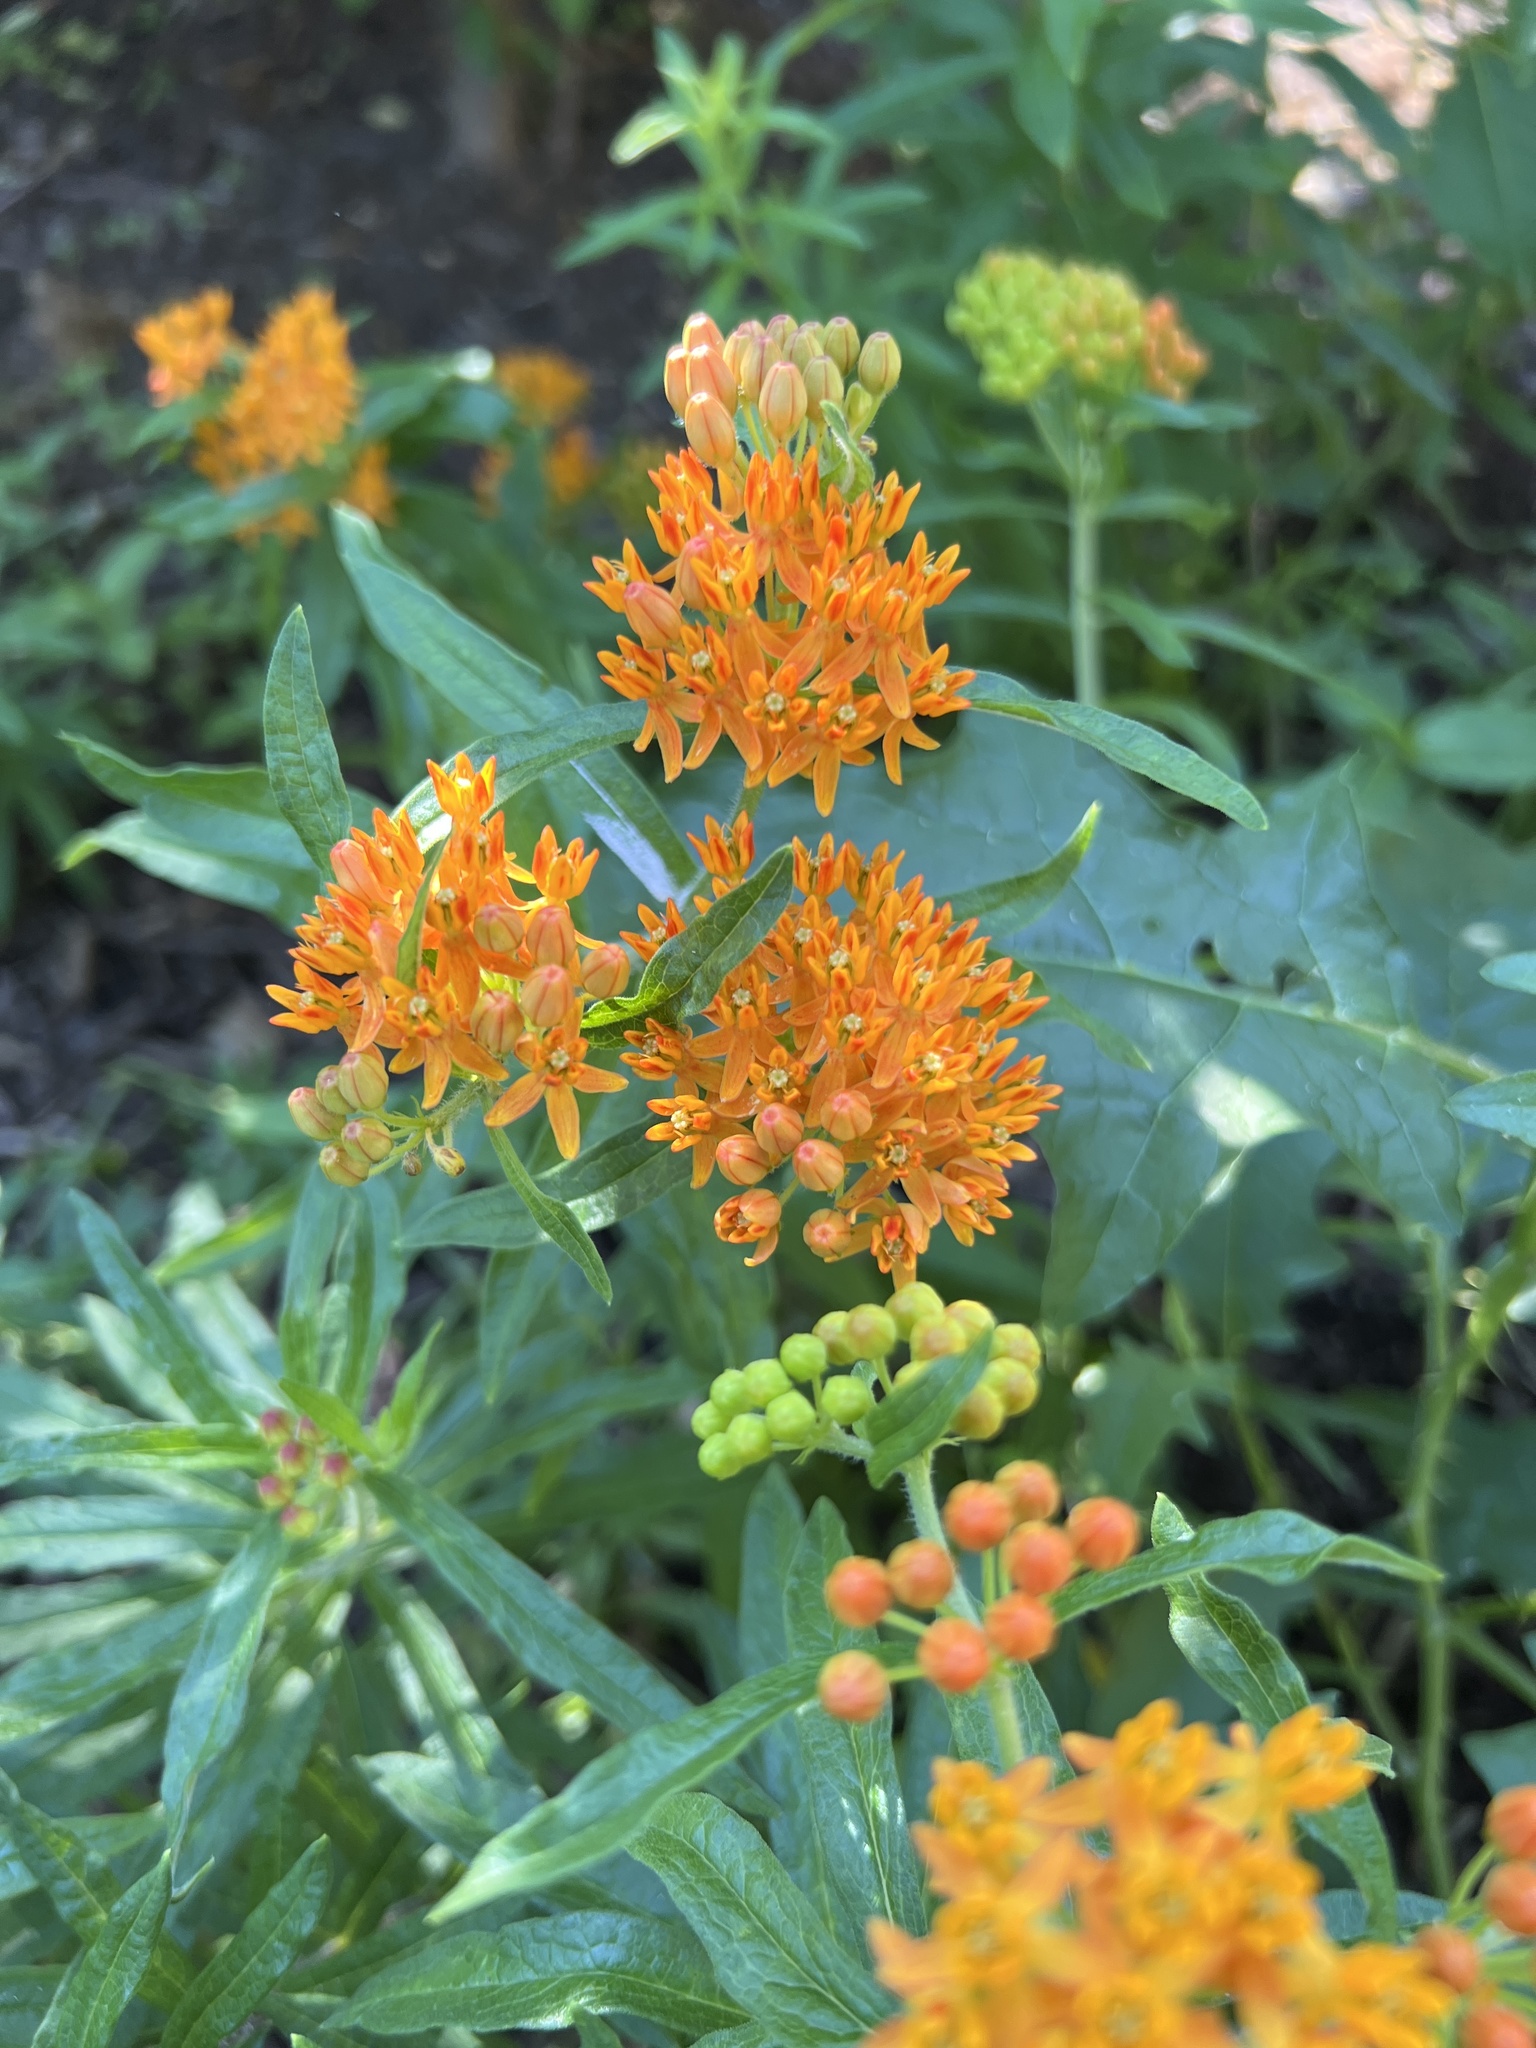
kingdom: Plantae
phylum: Tracheophyta
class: Magnoliopsida
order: Gentianales
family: Apocynaceae
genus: Asclepias
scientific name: Asclepias tuberosa
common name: Butterfly milkweed
